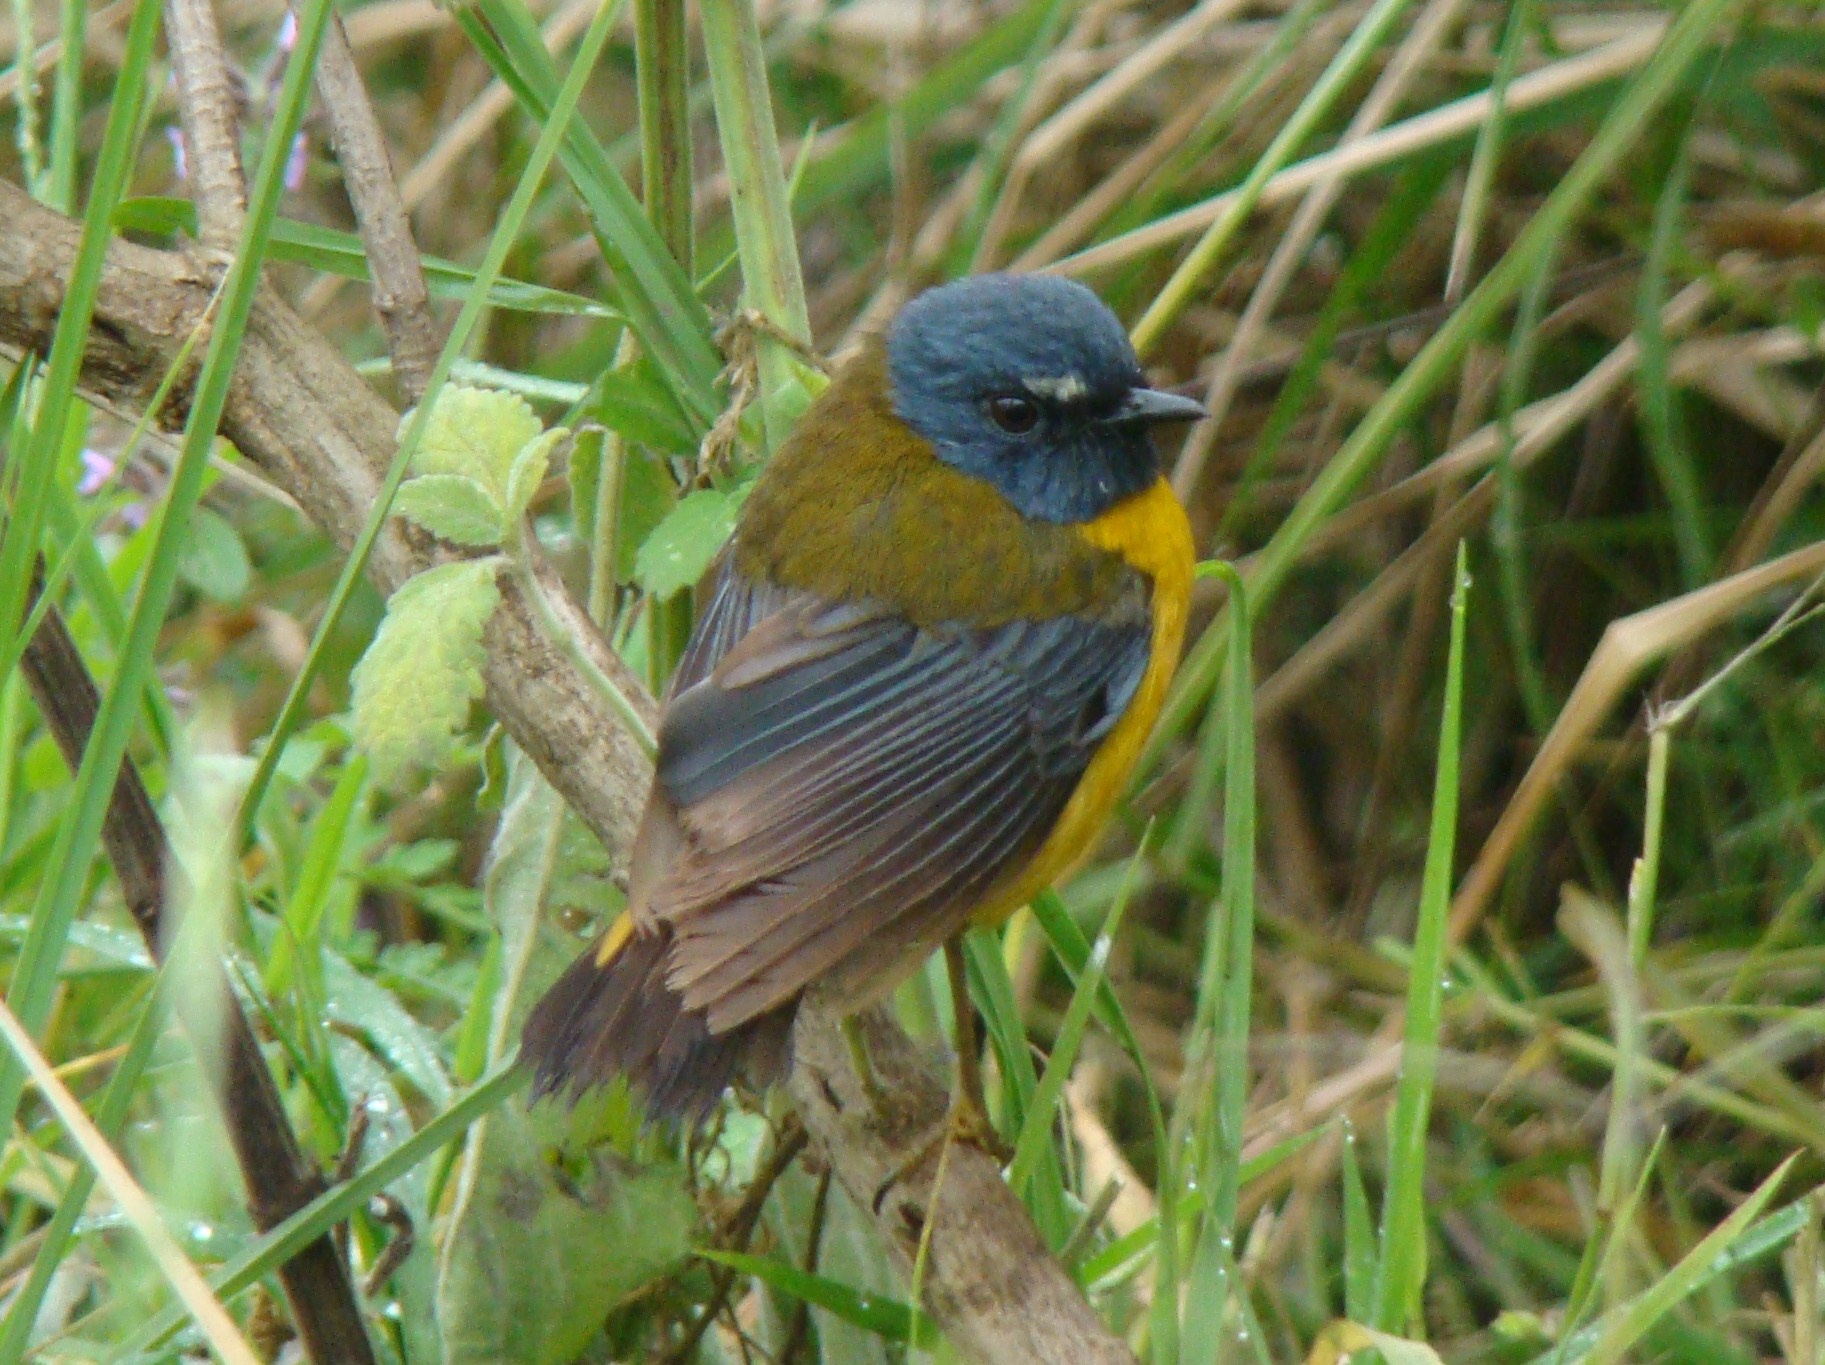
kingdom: Animalia
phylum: Chordata
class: Aves
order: Passeriformes
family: Muscicapidae
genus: Pogonocichla
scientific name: Pogonocichla stellata
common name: White-starred robin
